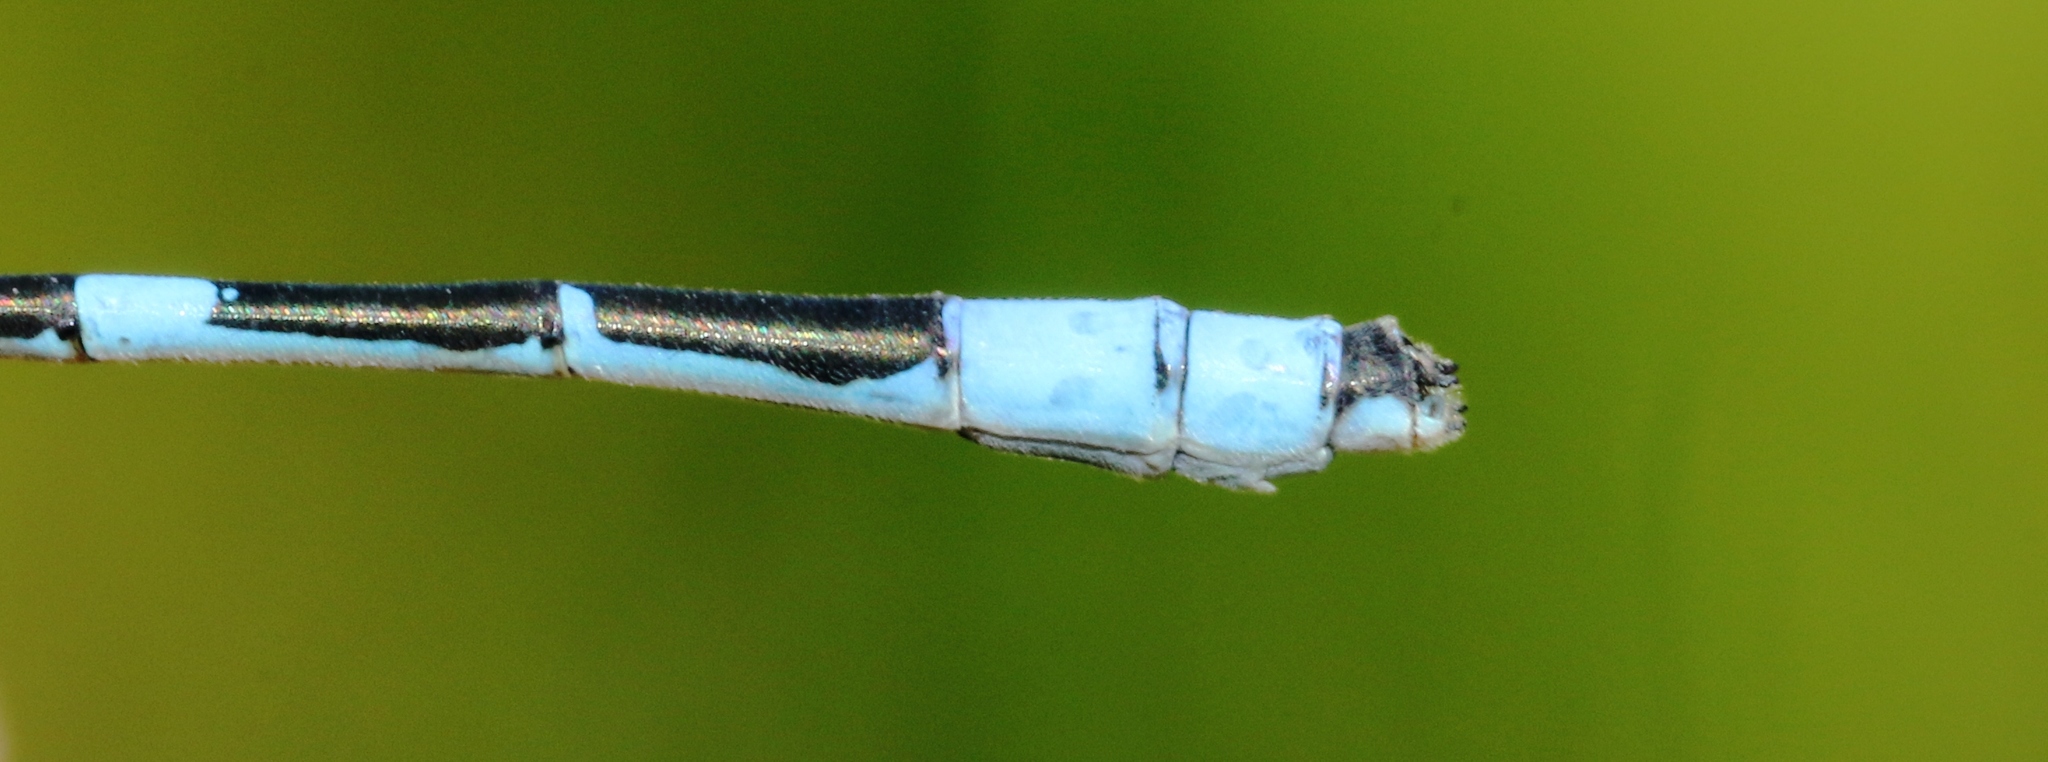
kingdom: Animalia
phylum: Arthropoda
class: Insecta
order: Odonata
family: Coenagrionidae
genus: Enallagma
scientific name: Enallagma hageni
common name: Hagen's bluet
